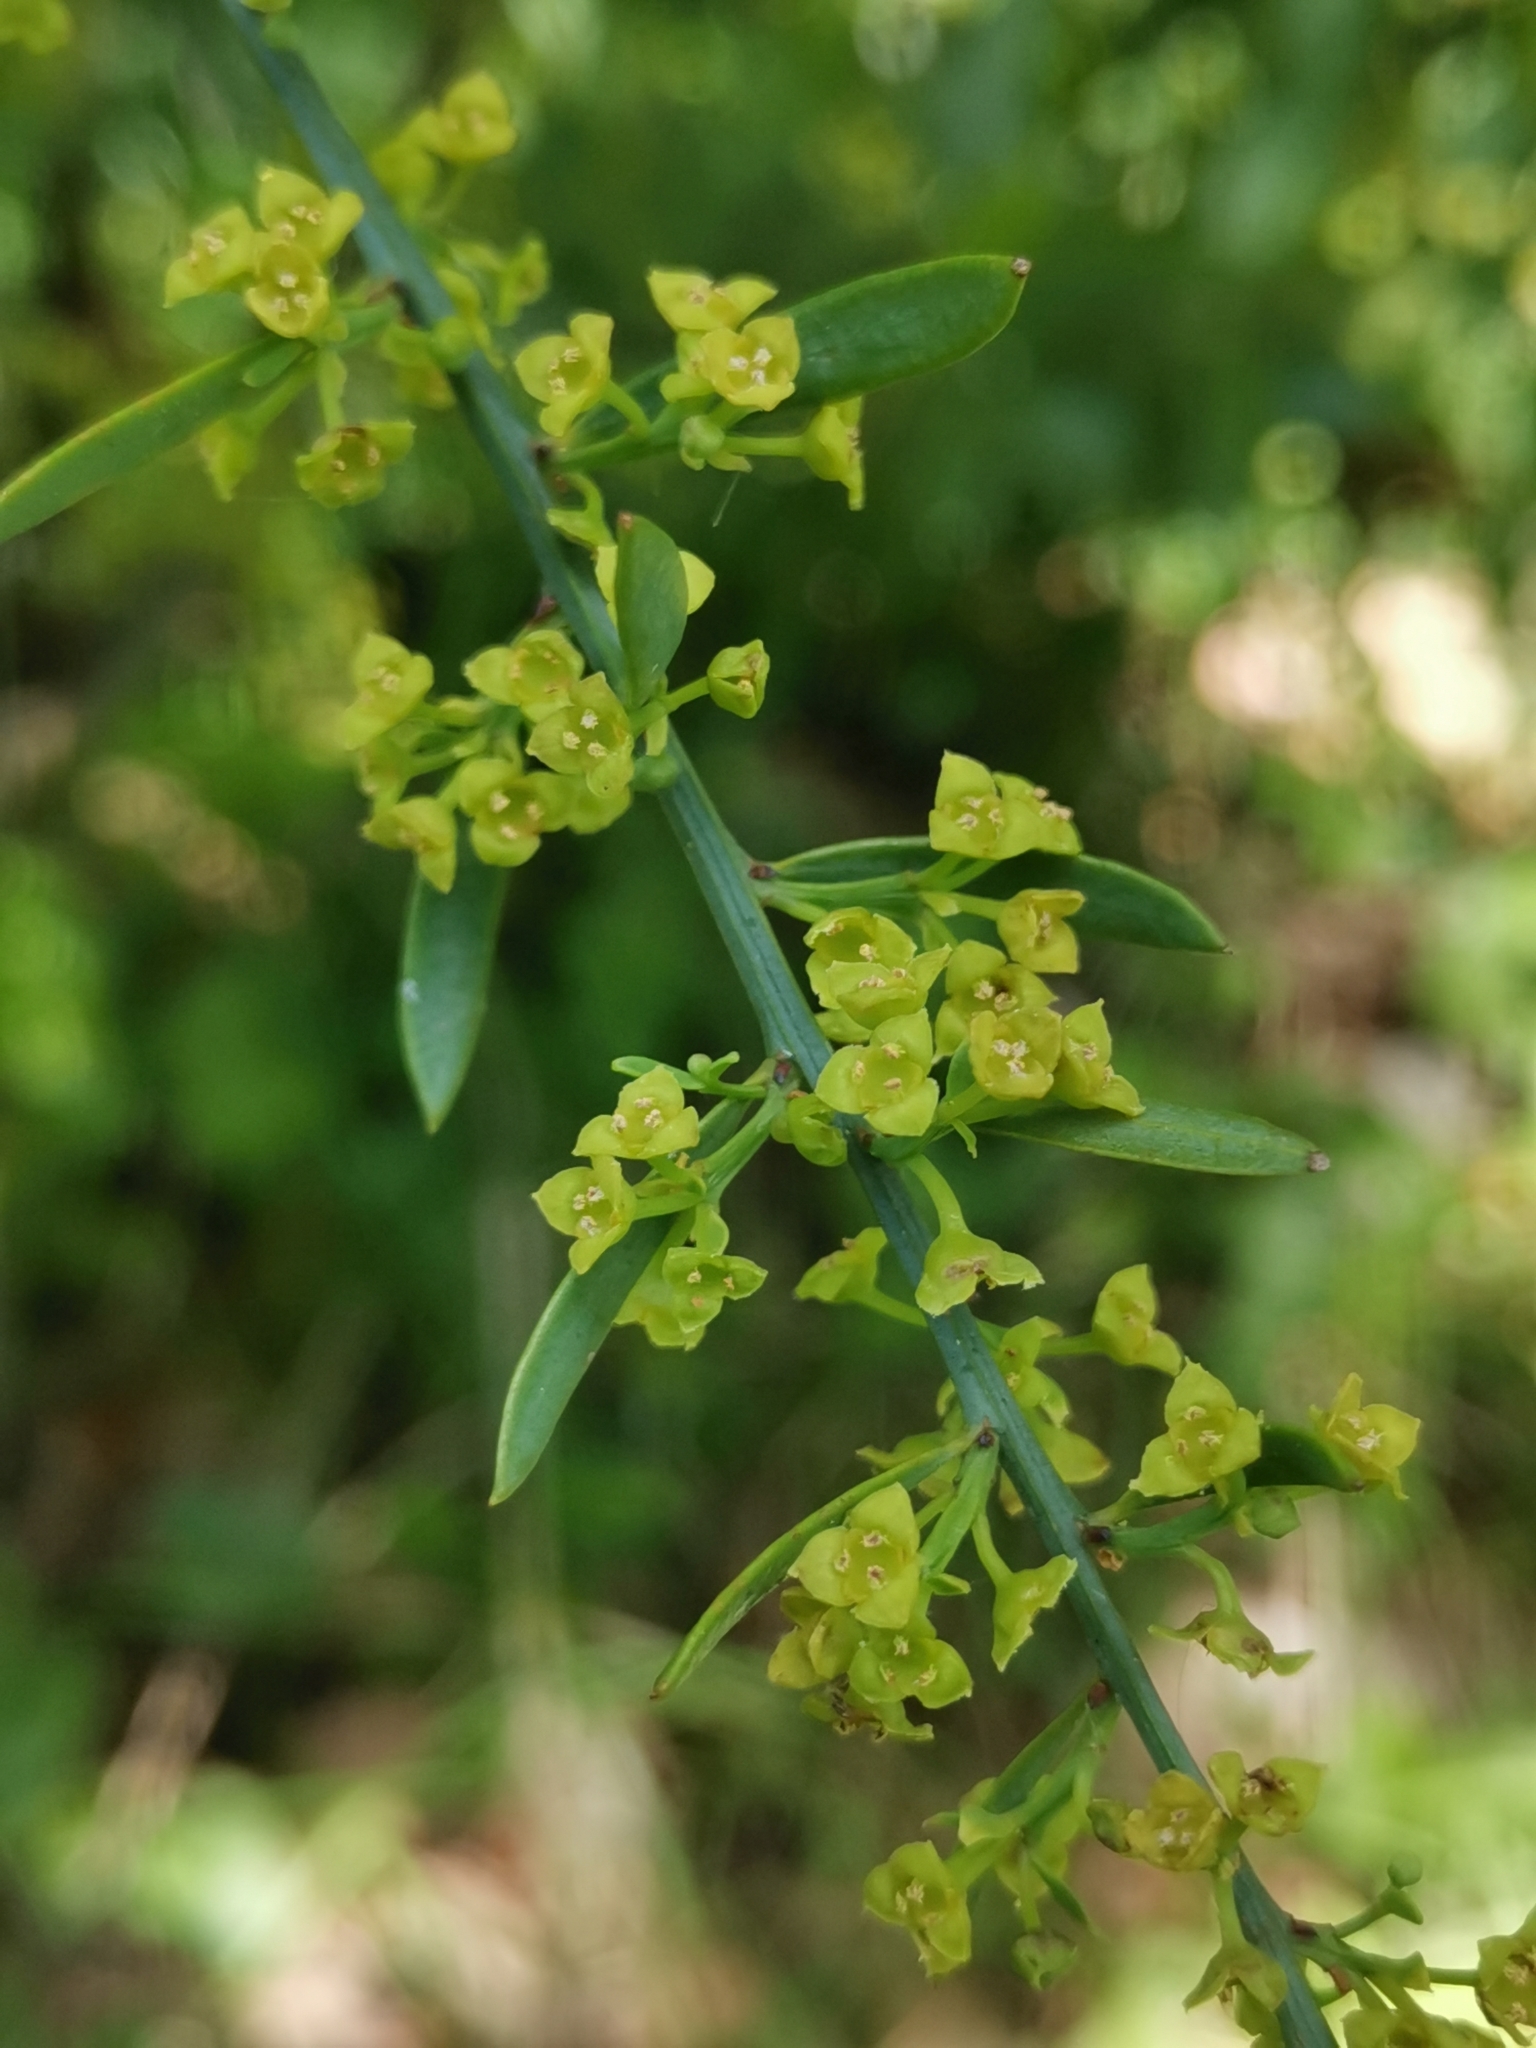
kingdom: Plantae
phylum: Tracheophyta
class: Magnoliopsida
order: Santalales
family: Santalaceae
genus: Osyris
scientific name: Osyris alba
